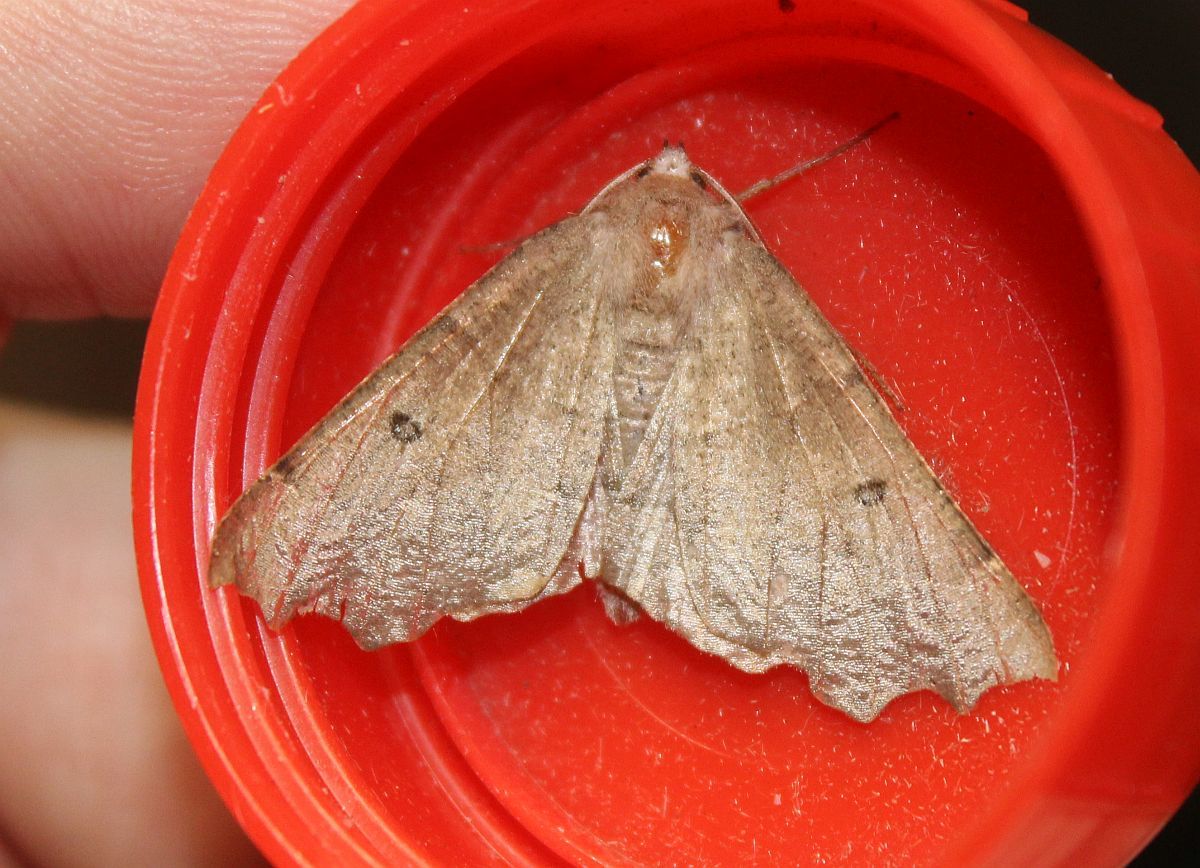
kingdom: Animalia
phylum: Arthropoda
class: Insecta
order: Lepidoptera
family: Geometridae
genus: Odontopera
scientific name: Odontopera bidentata
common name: Scalloped hazel
